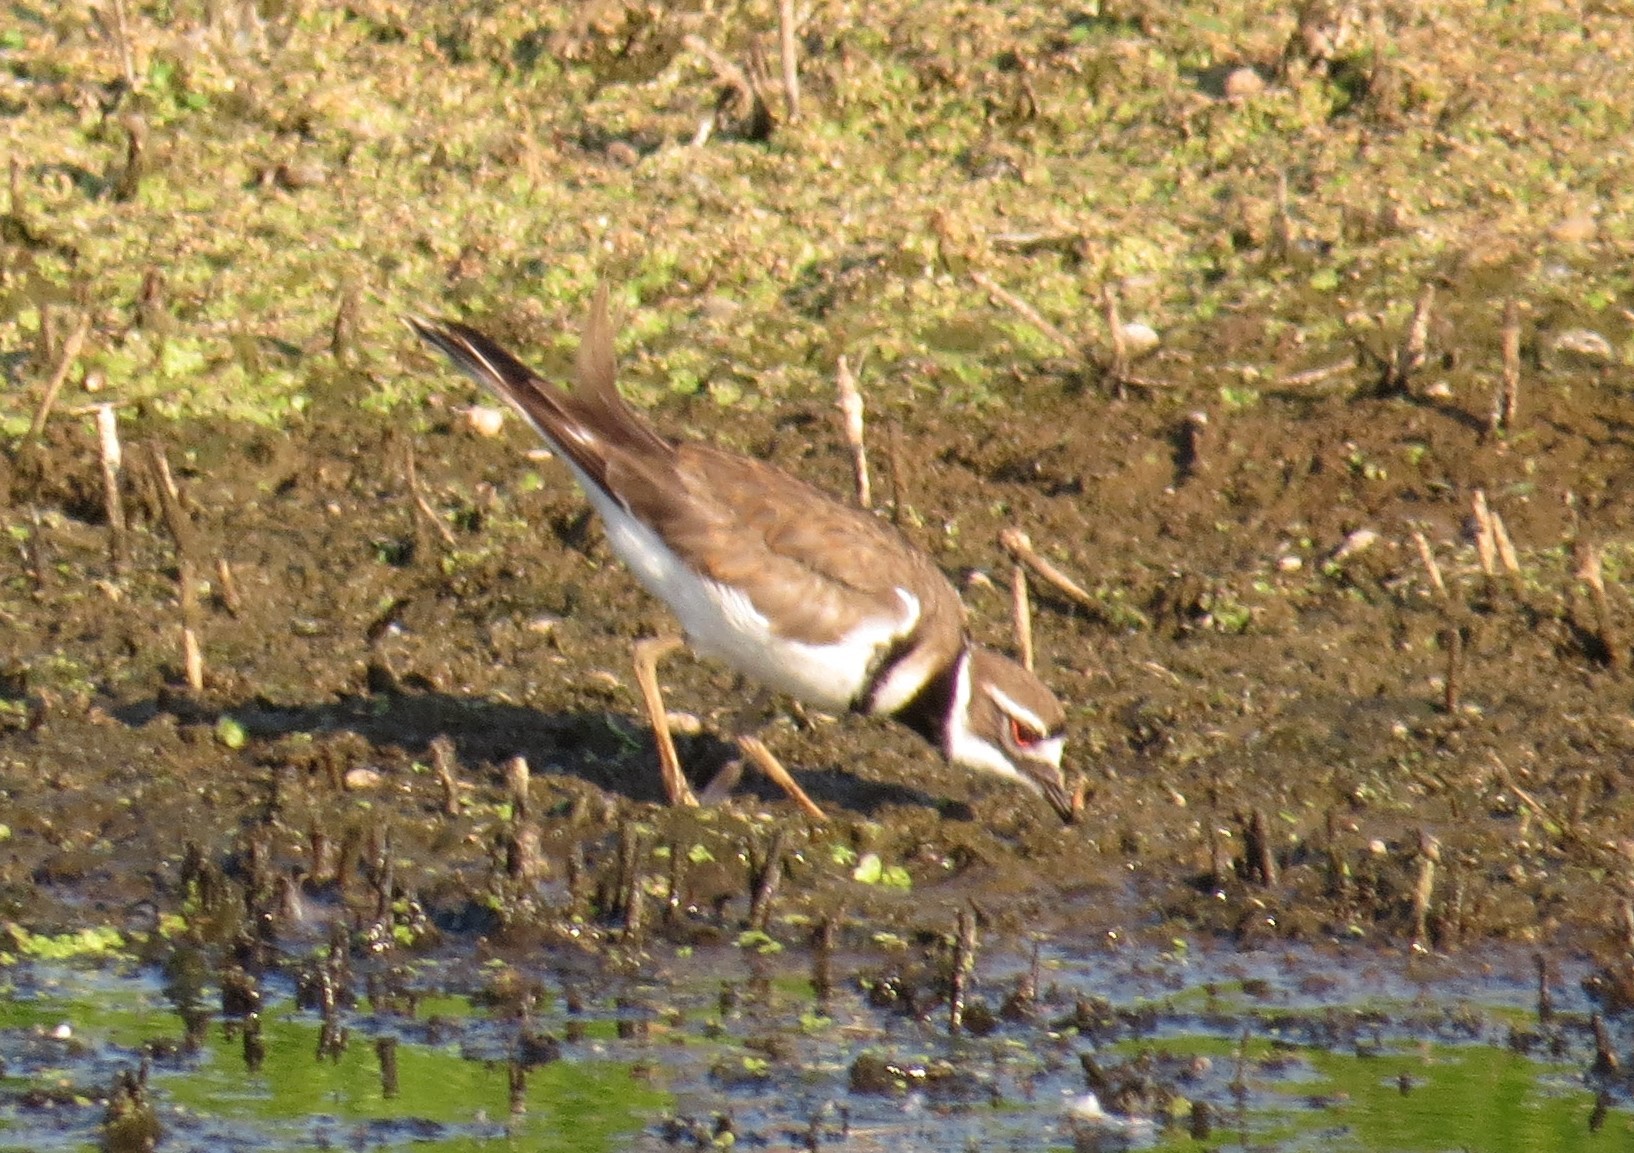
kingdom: Animalia
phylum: Chordata
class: Aves
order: Charadriiformes
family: Charadriidae
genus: Charadrius
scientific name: Charadrius vociferus
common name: Killdeer
